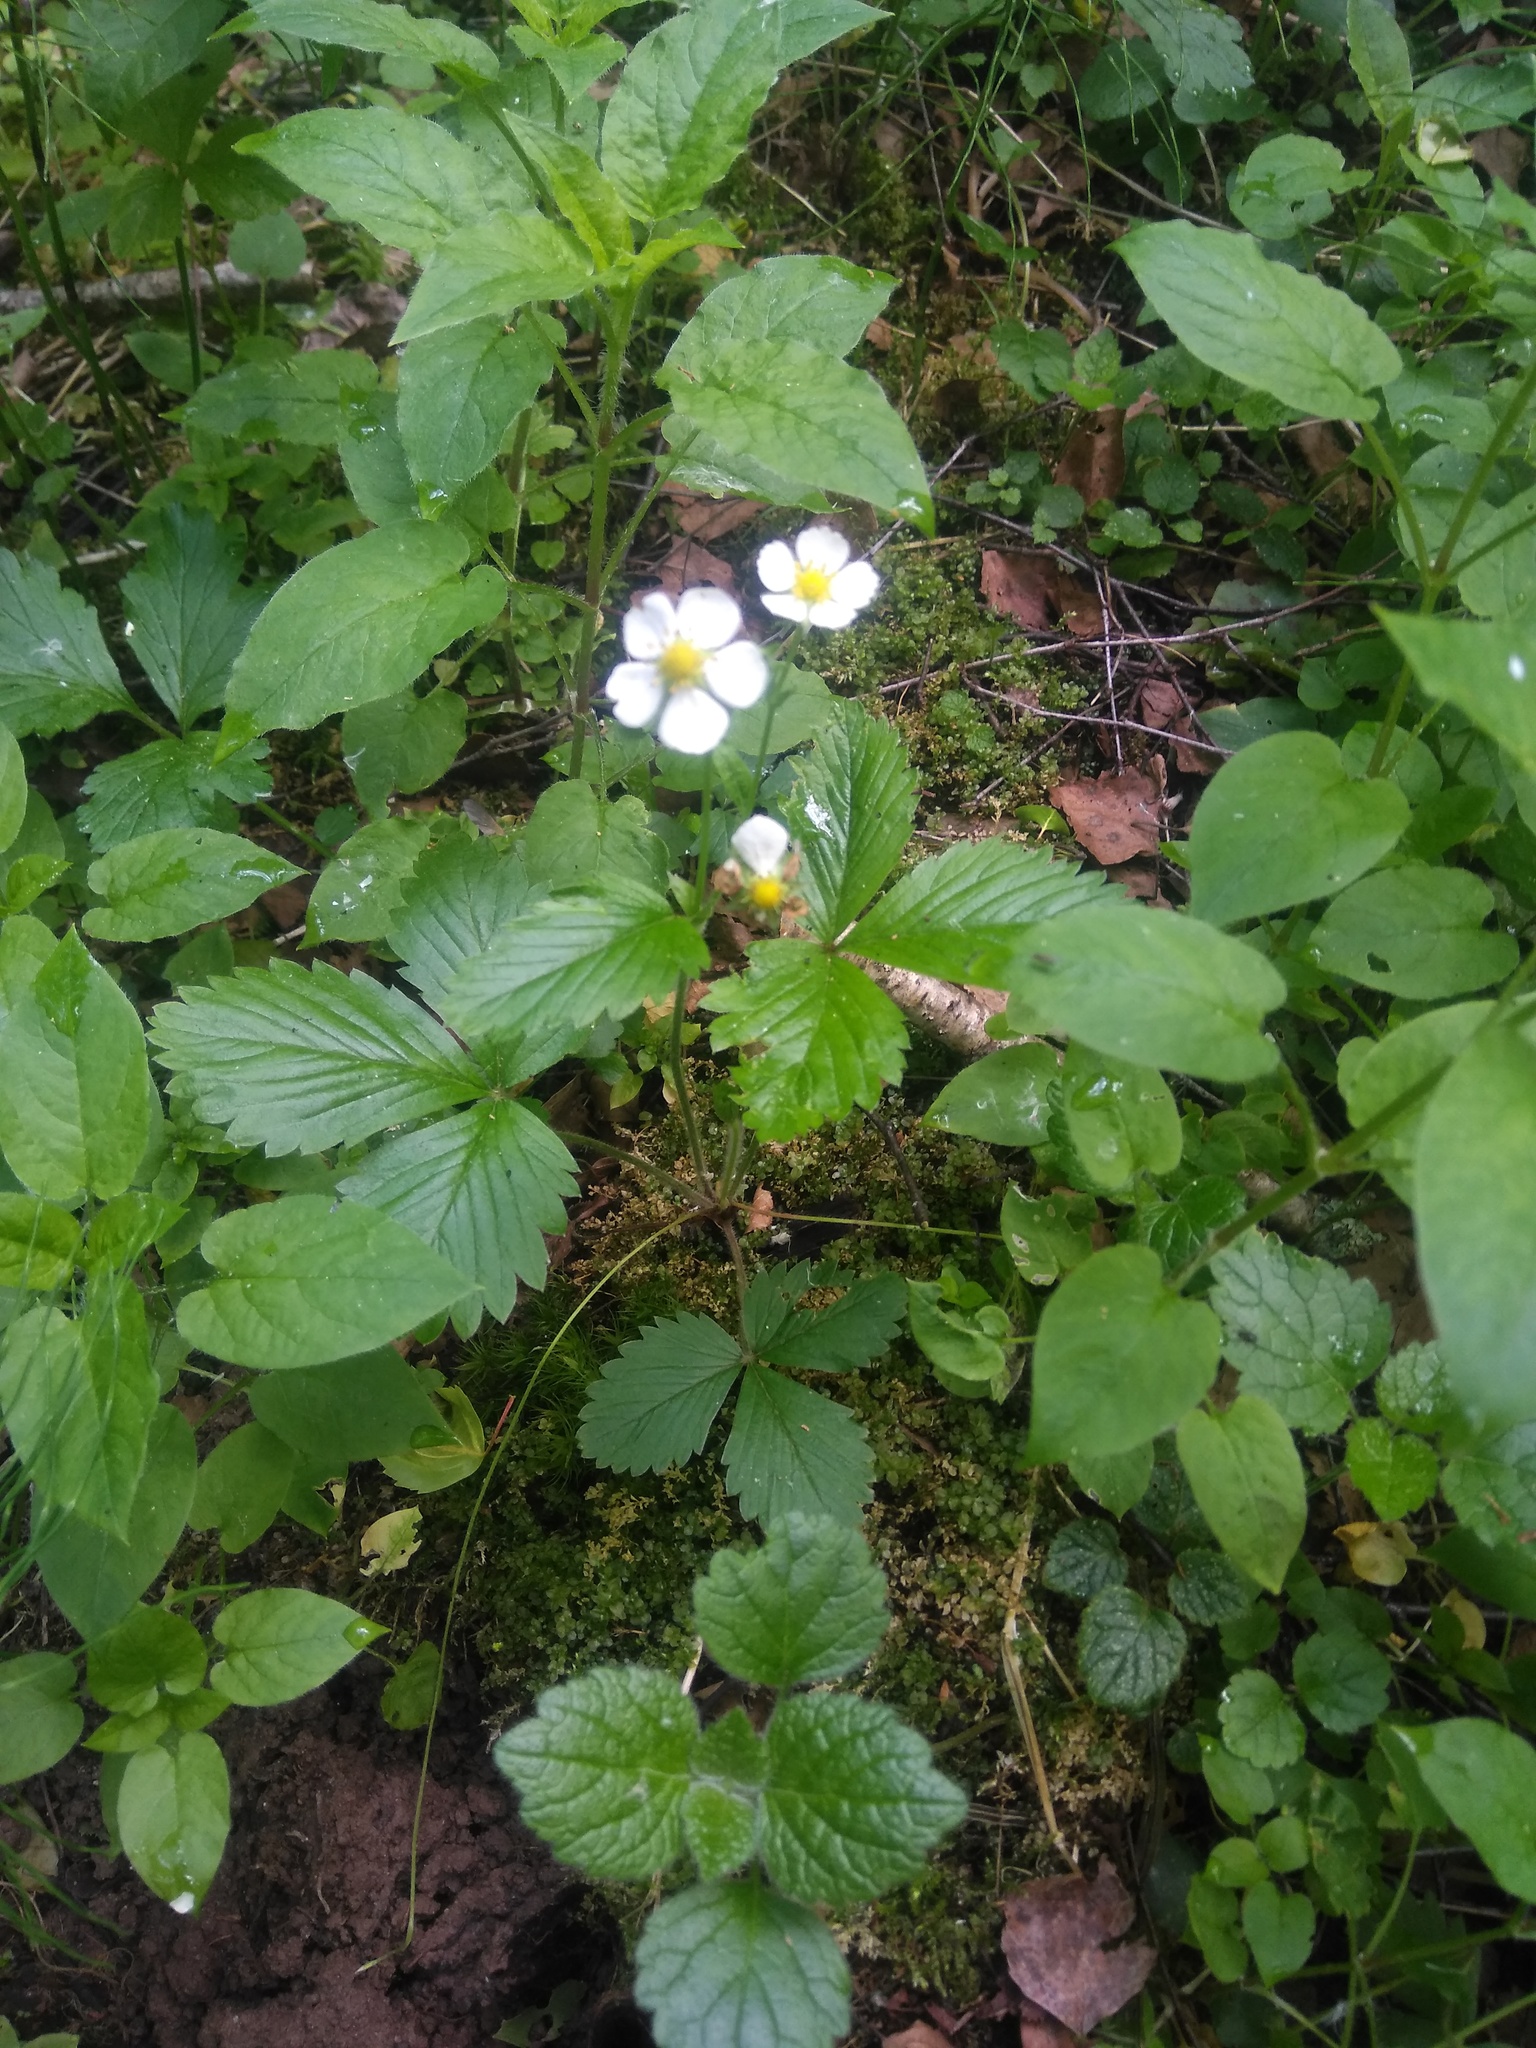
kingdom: Plantae
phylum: Tracheophyta
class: Magnoliopsida
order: Rosales
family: Rosaceae
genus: Fragaria
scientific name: Fragaria vesca
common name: Wild strawberry
